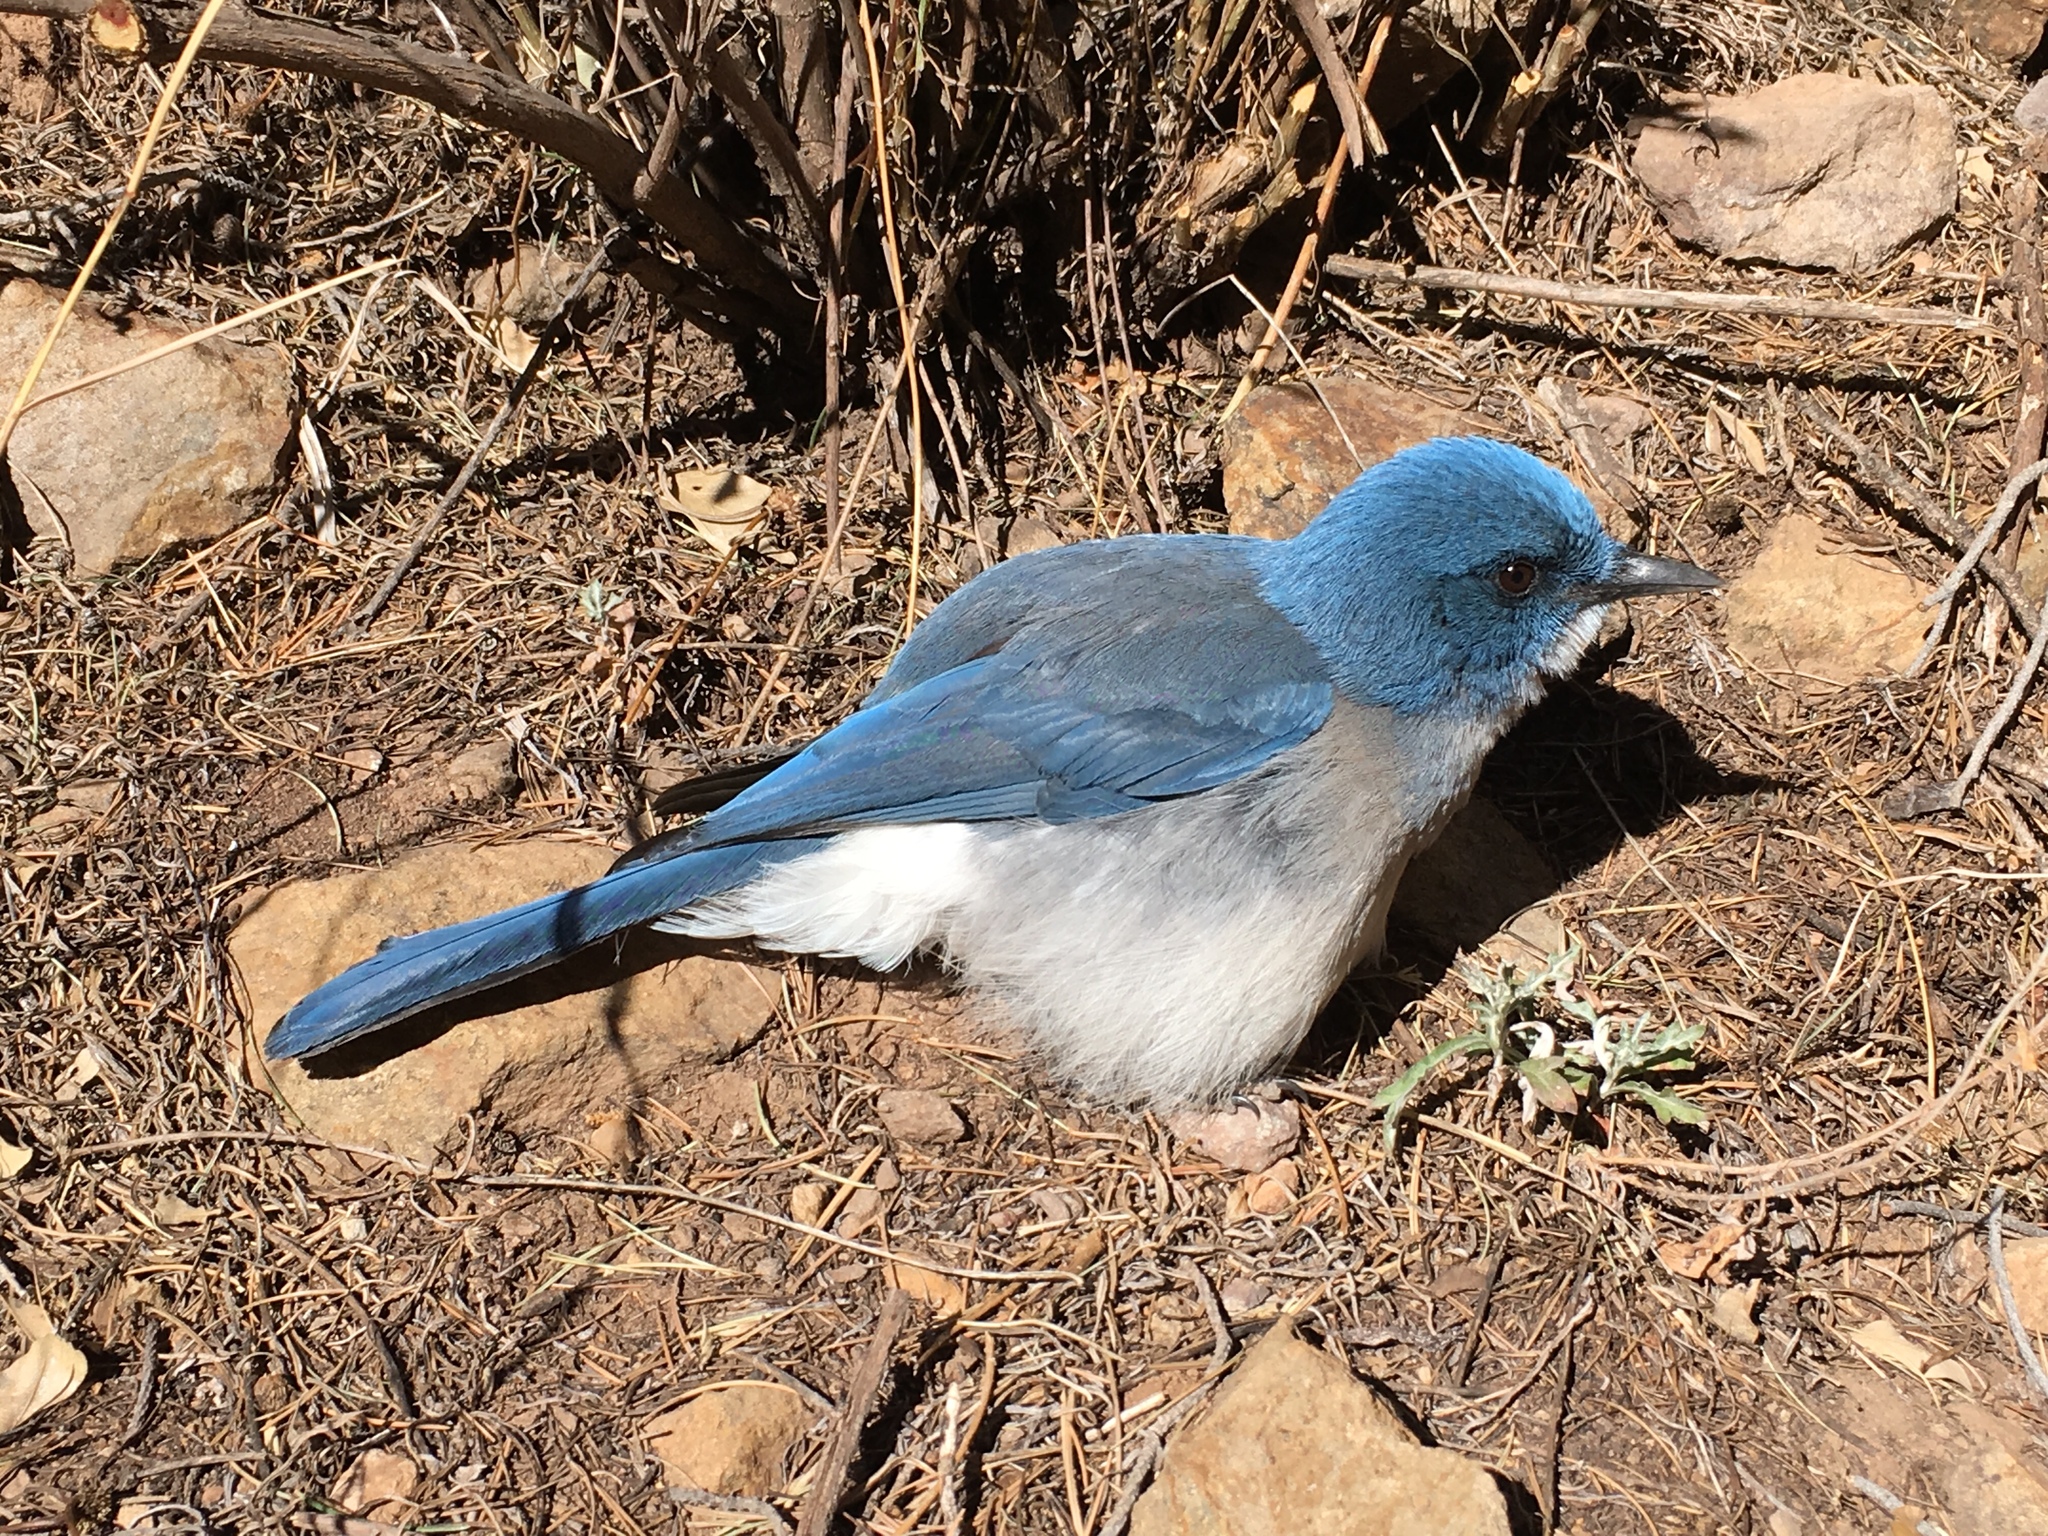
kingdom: Animalia
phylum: Chordata
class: Aves
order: Passeriformes
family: Corvidae
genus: Aphelocoma
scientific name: Aphelocoma wollweberi
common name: Mexican jay
